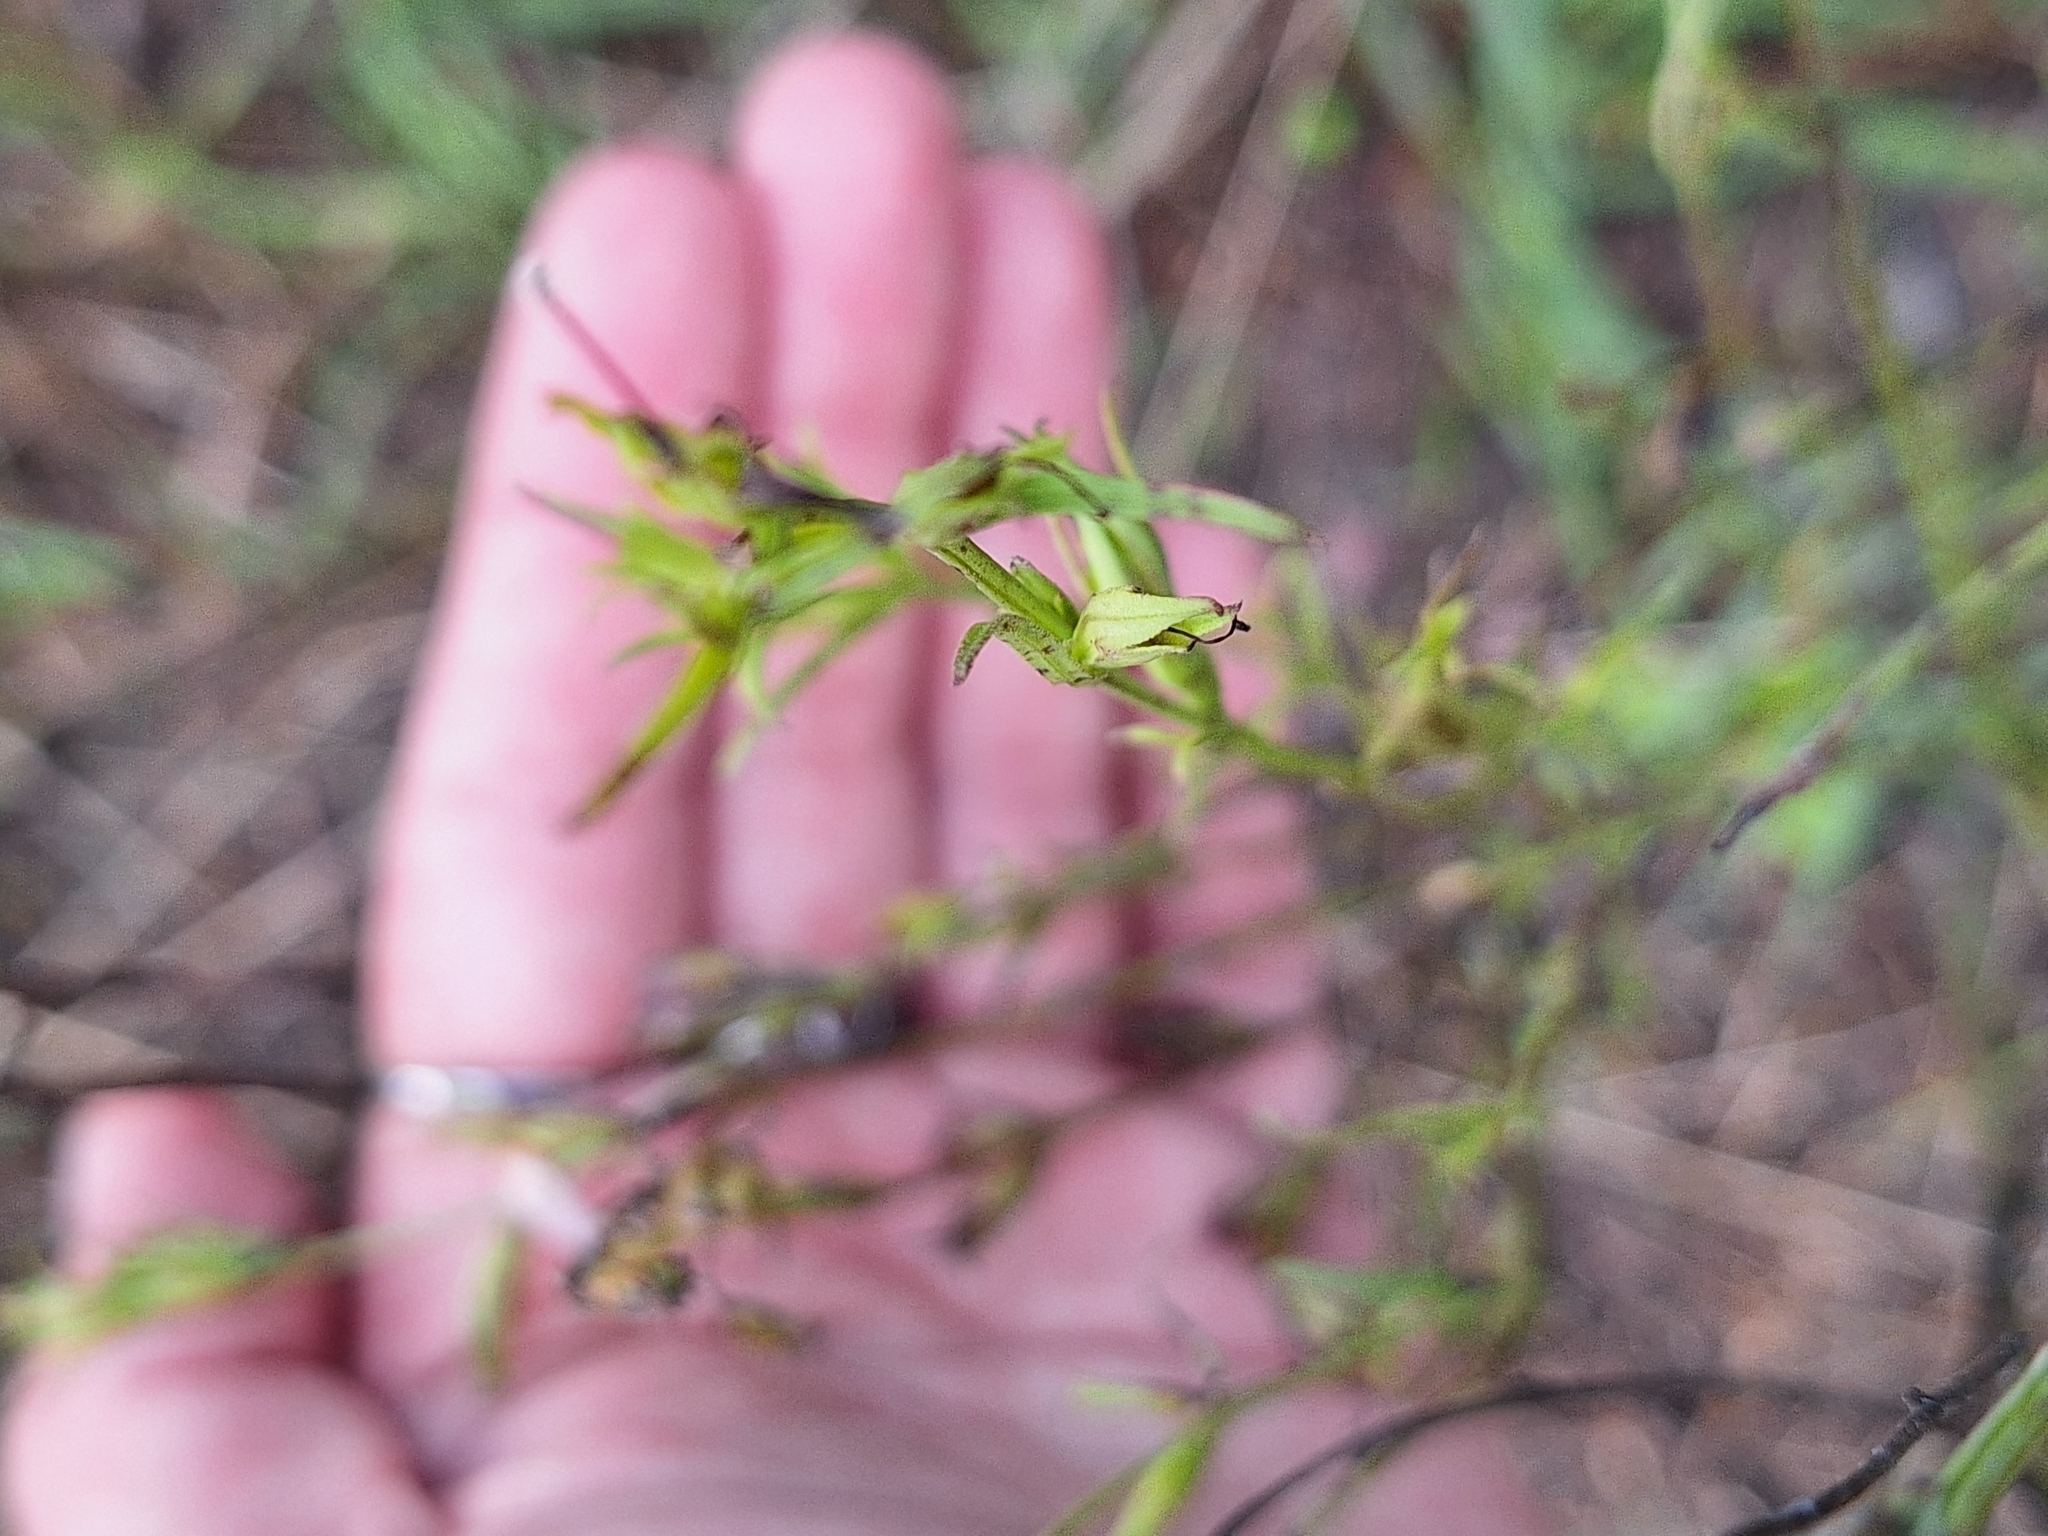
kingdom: Plantae
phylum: Tracheophyta
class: Magnoliopsida
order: Lamiales
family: Orobanchaceae
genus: Agalinis
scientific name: Agalinis communis
